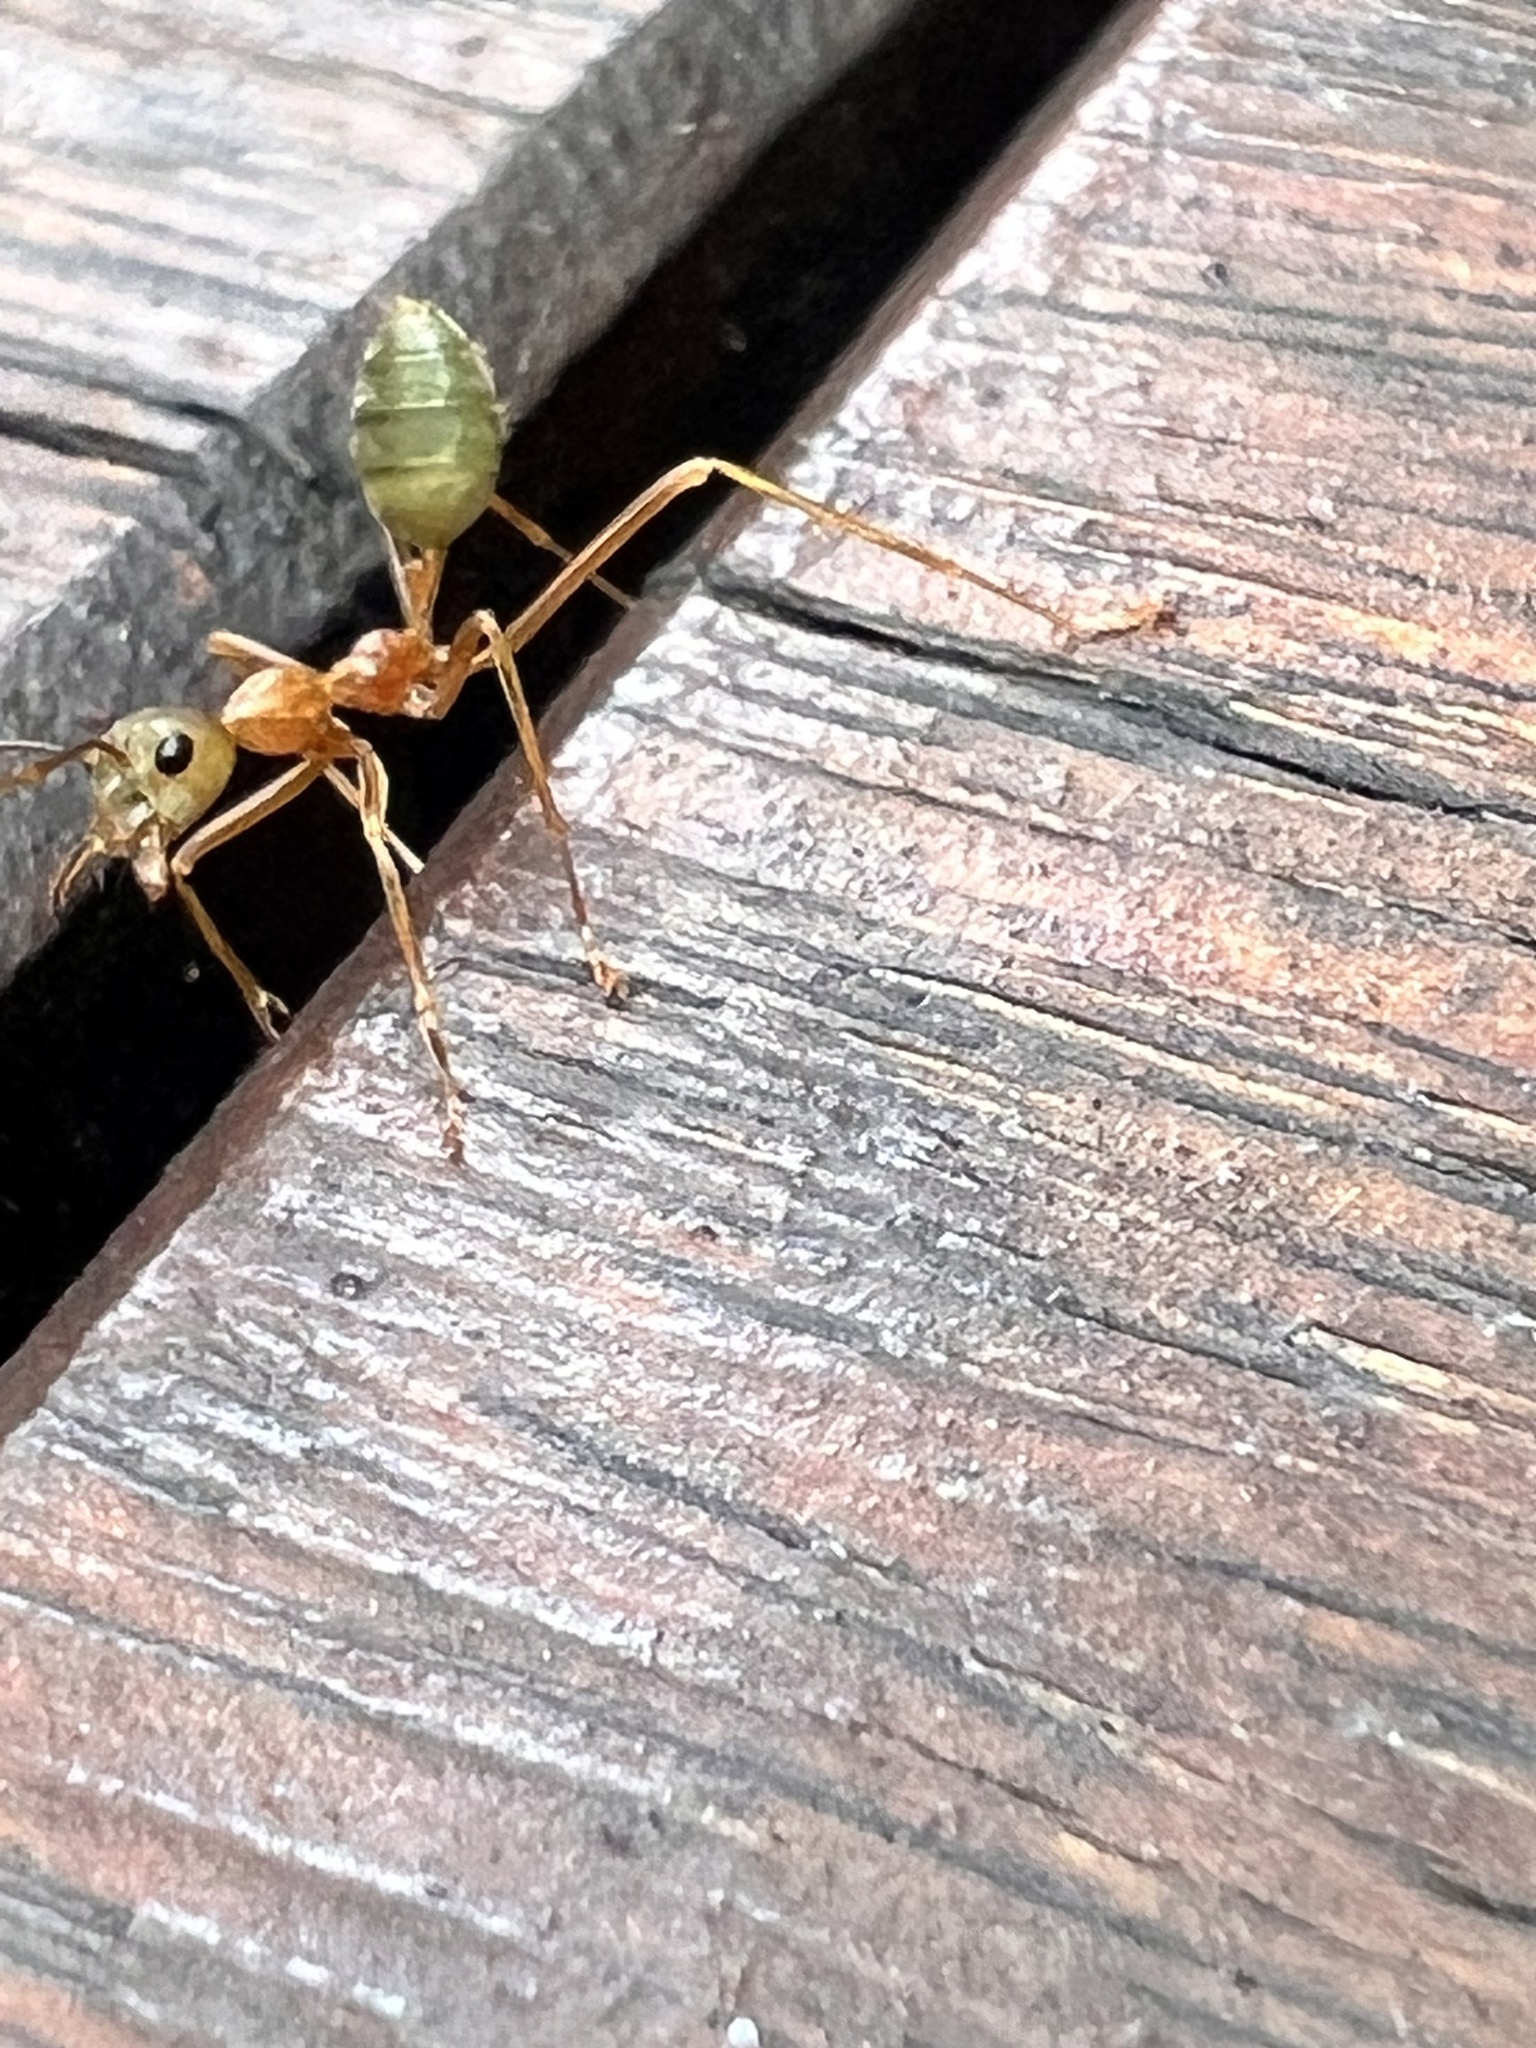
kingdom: Animalia
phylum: Arthropoda
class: Insecta
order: Hymenoptera
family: Formicidae
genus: Oecophylla
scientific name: Oecophylla smaragdina
